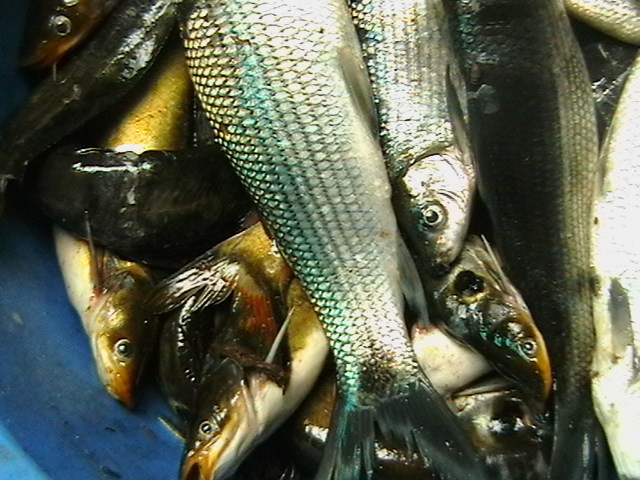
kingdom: Animalia
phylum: Chordata
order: Siluriformes
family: Bagridae
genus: Horabagrus
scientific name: Horabagrus brachysoma
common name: Bulls eye catfish
